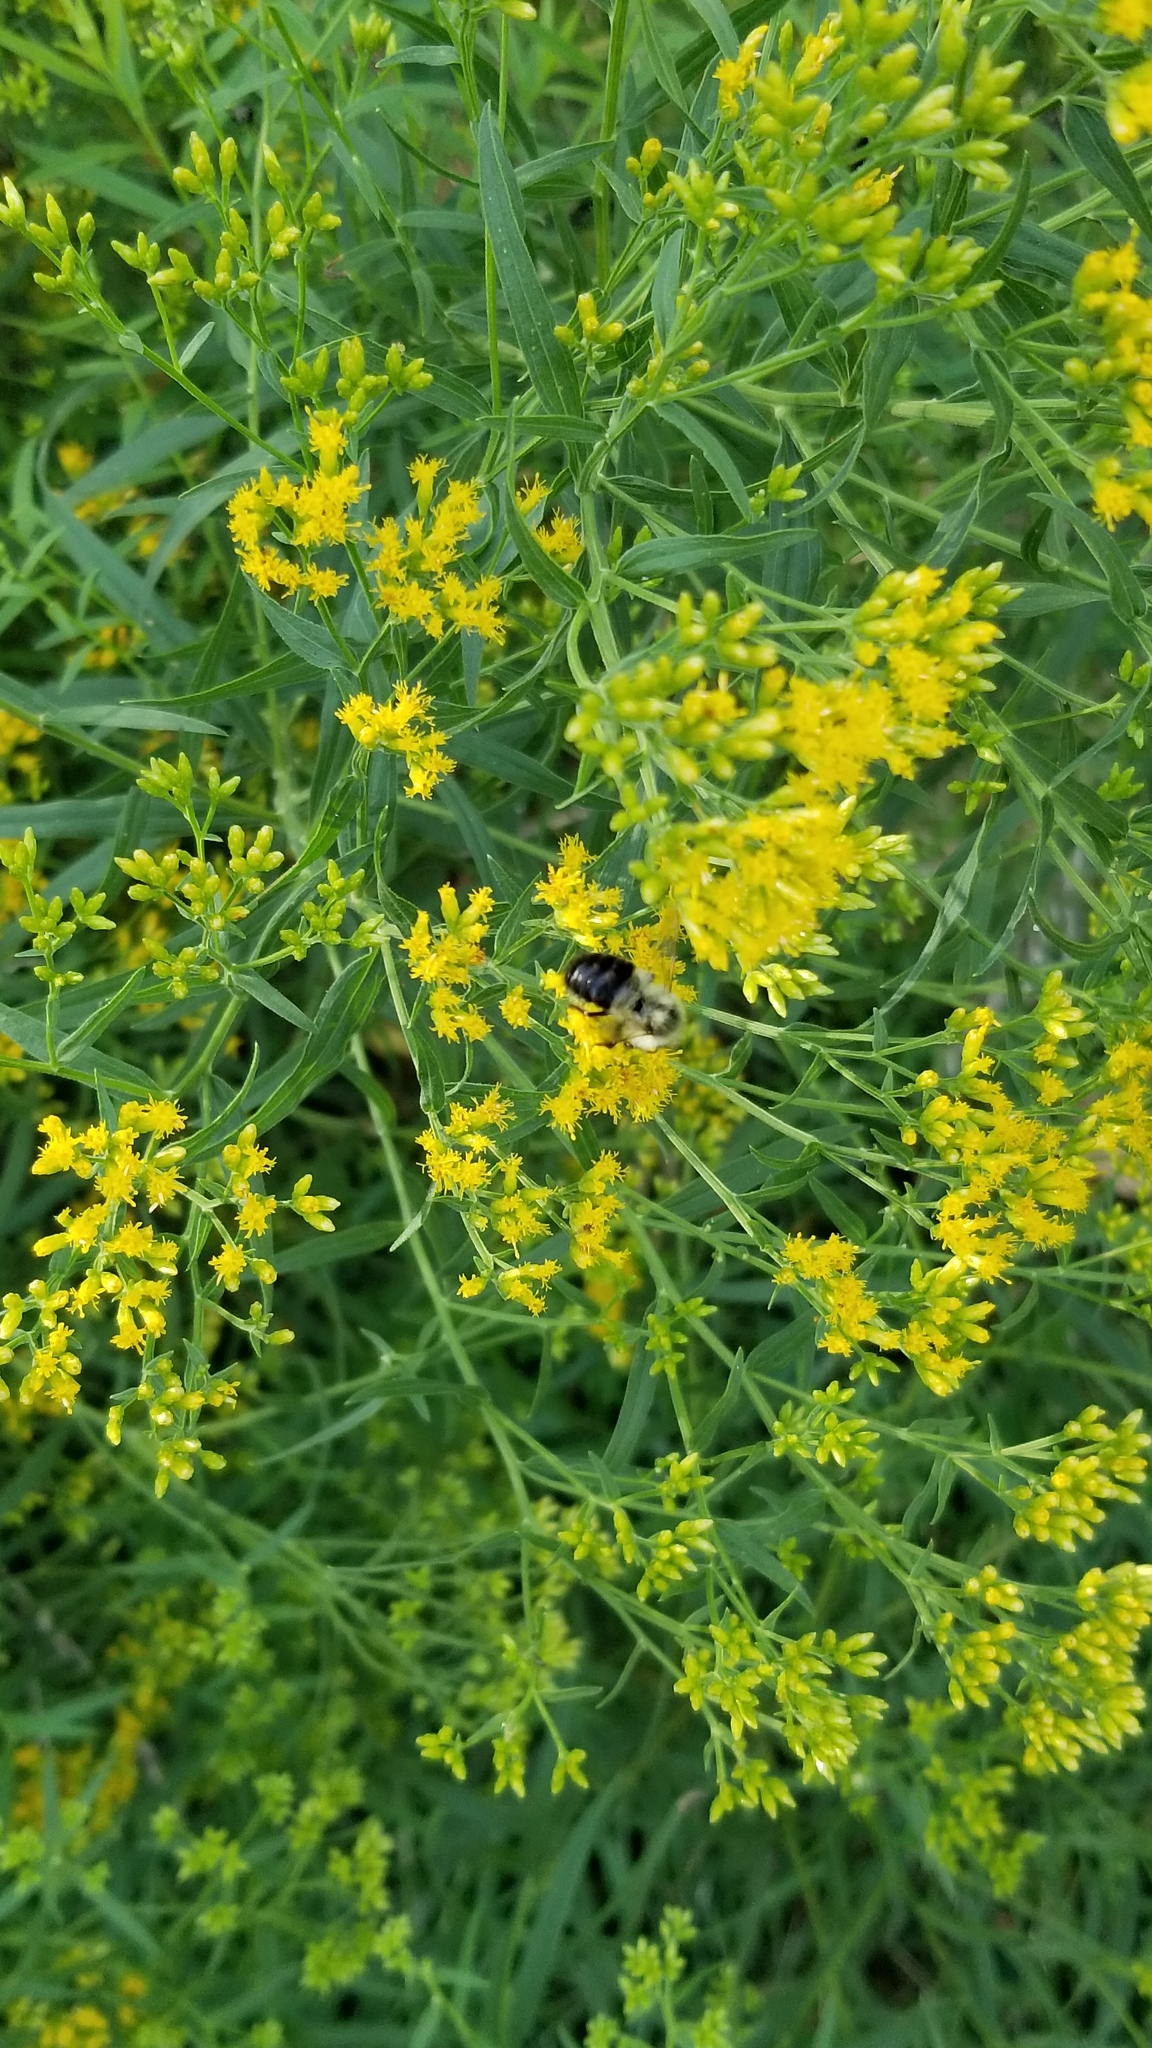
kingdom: Animalia
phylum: Arthropoda
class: Insecta
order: Hymenoptera
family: Apidae
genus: Bombus
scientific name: Bombus impatiens
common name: Common eastern bumble bee
